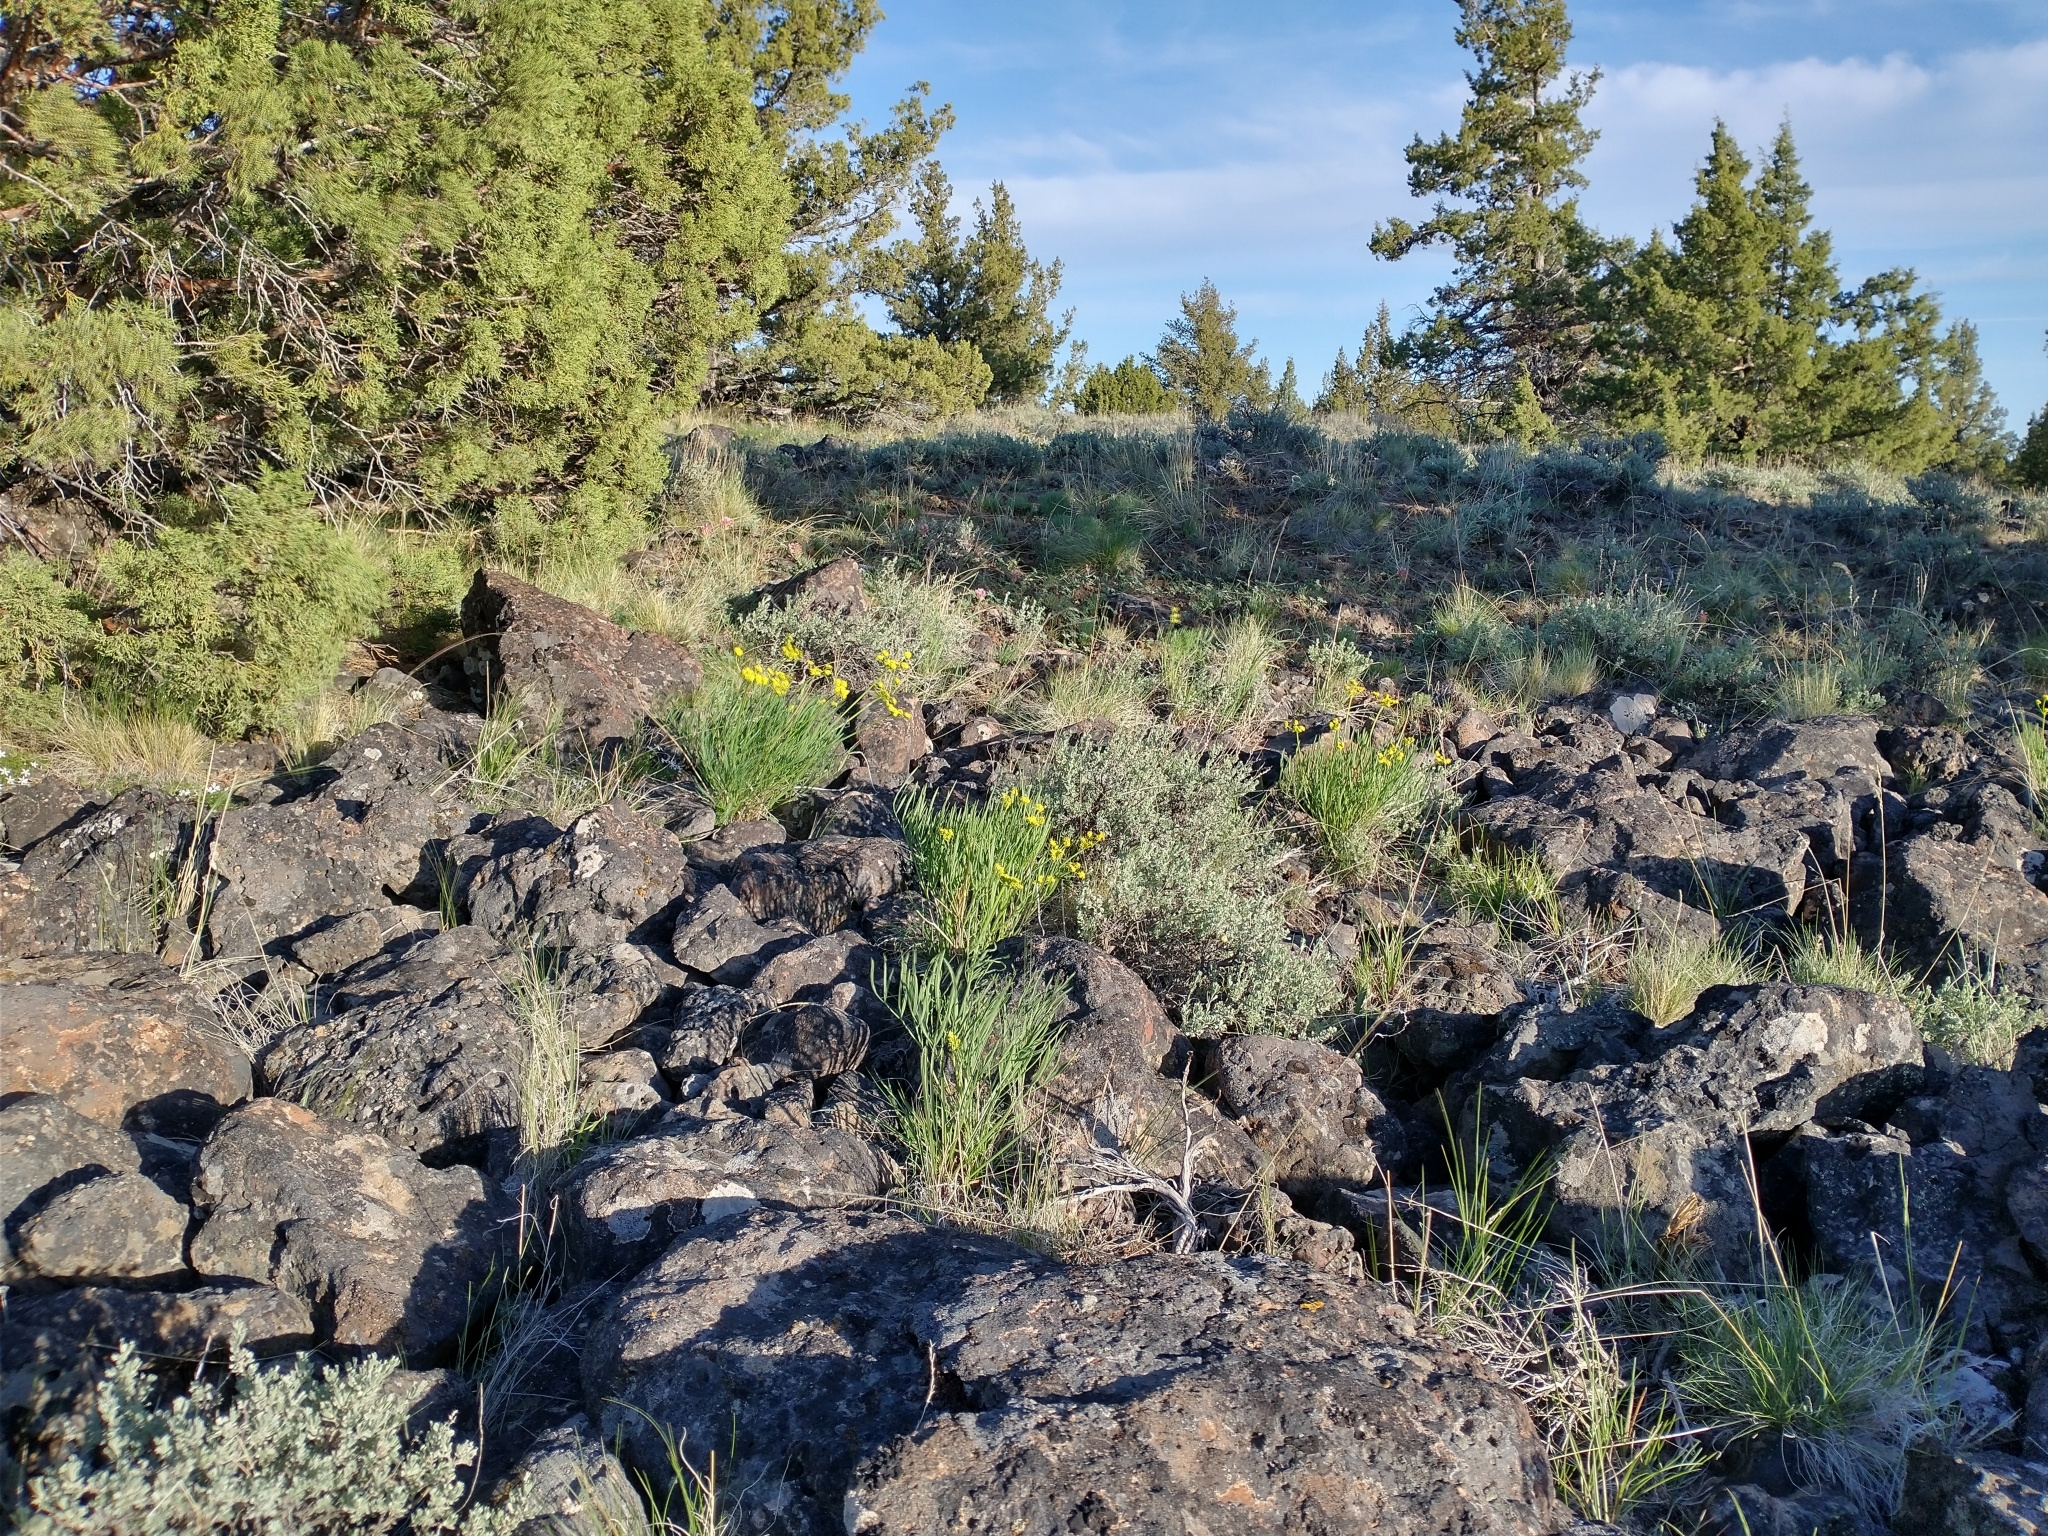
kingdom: Plantae
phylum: Tracheophyta
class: Magnoliopsida
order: Apiales
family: Apiaceae
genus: Lomatium
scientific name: Lomatium triternatum
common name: Ternate lomatium
